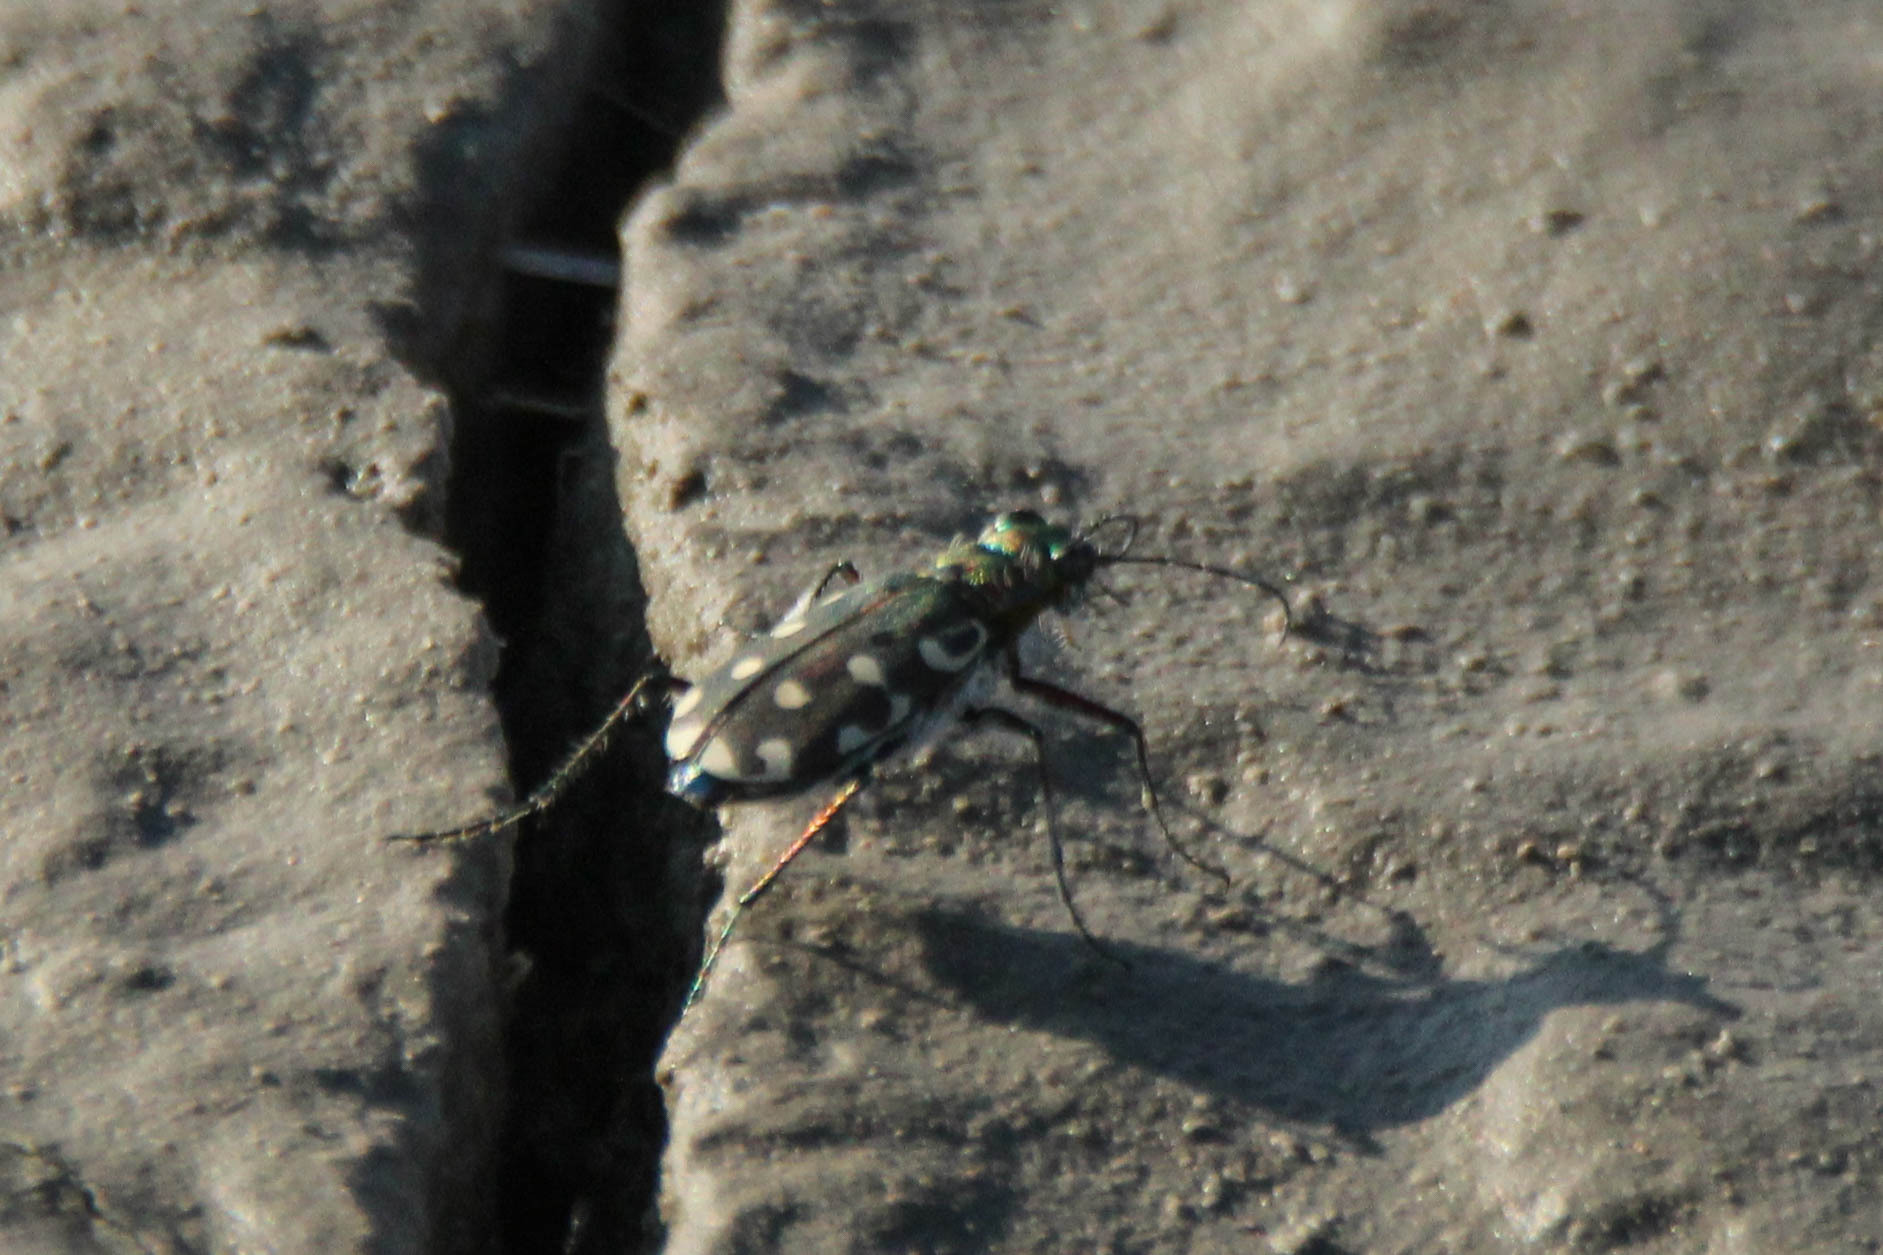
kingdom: Animalia
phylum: Arthropoda
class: Insecta
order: Coleoptera
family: Carabidae
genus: Cicindela
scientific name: Cicindela littoralis
